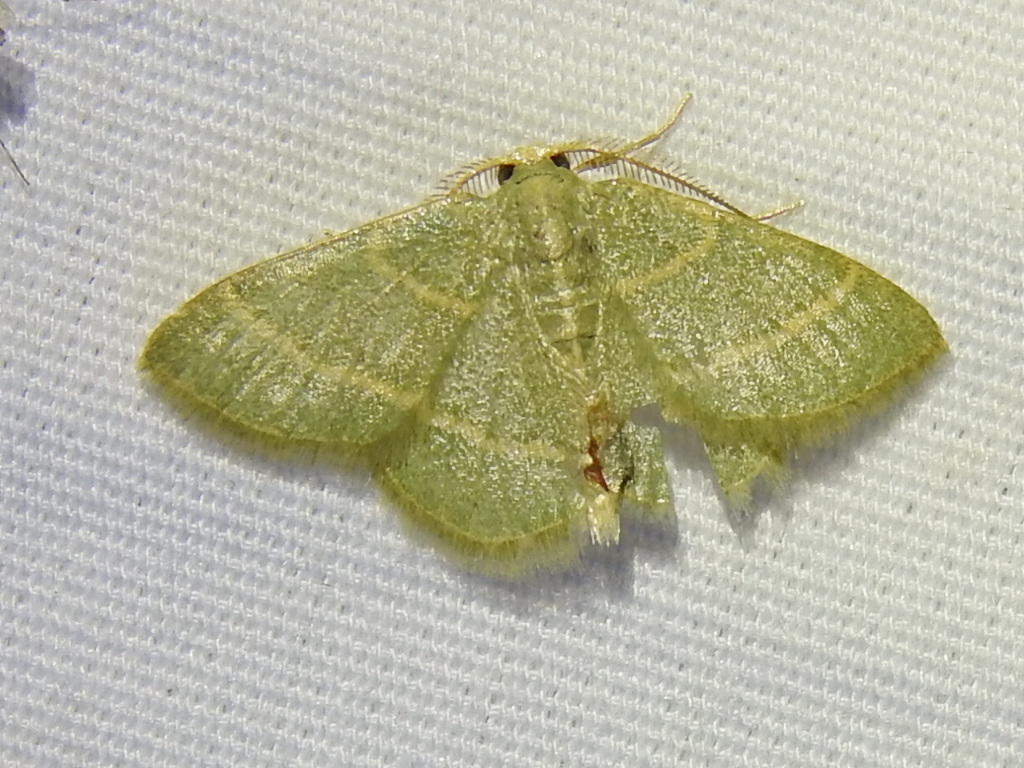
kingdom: Animalia
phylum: Arthropoda
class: Insecta
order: Lepidoptera
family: Geometridae
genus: Chlorochlamys
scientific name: Chlorochlamys chloroleucaria
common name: Blackberry looper
